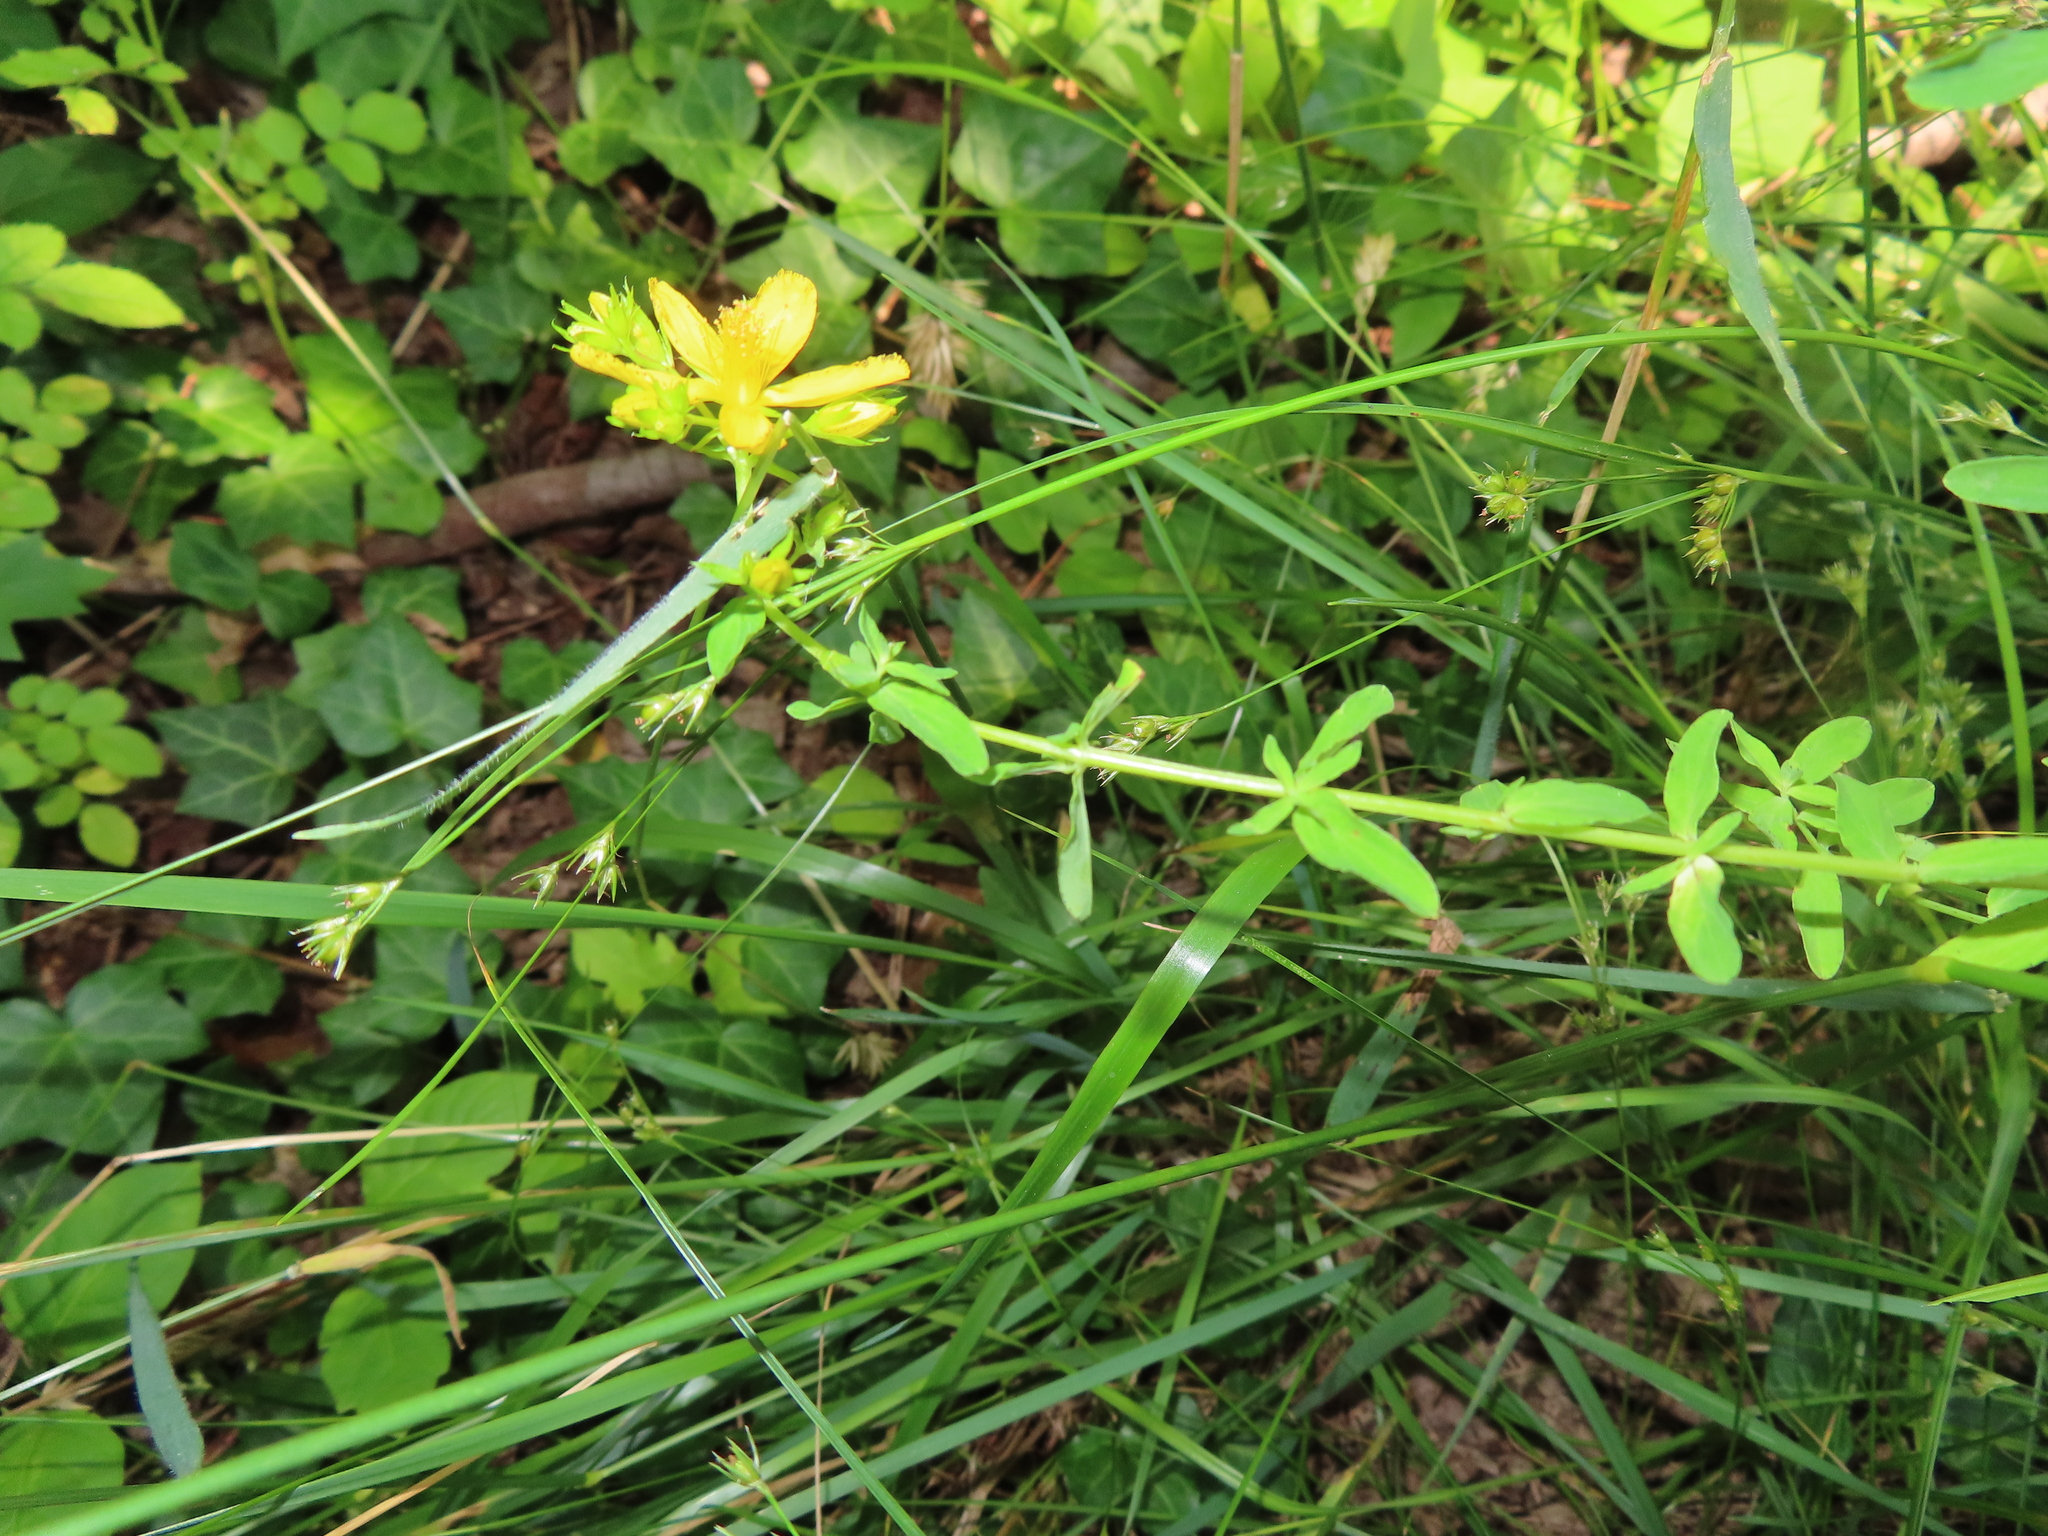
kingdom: Plantae
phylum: Tracheophyta
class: Magnoliopsida
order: Malpighiales
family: Hypericaceae
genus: Hypericum
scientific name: Hypericum perforatum
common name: Common st. johnswort
